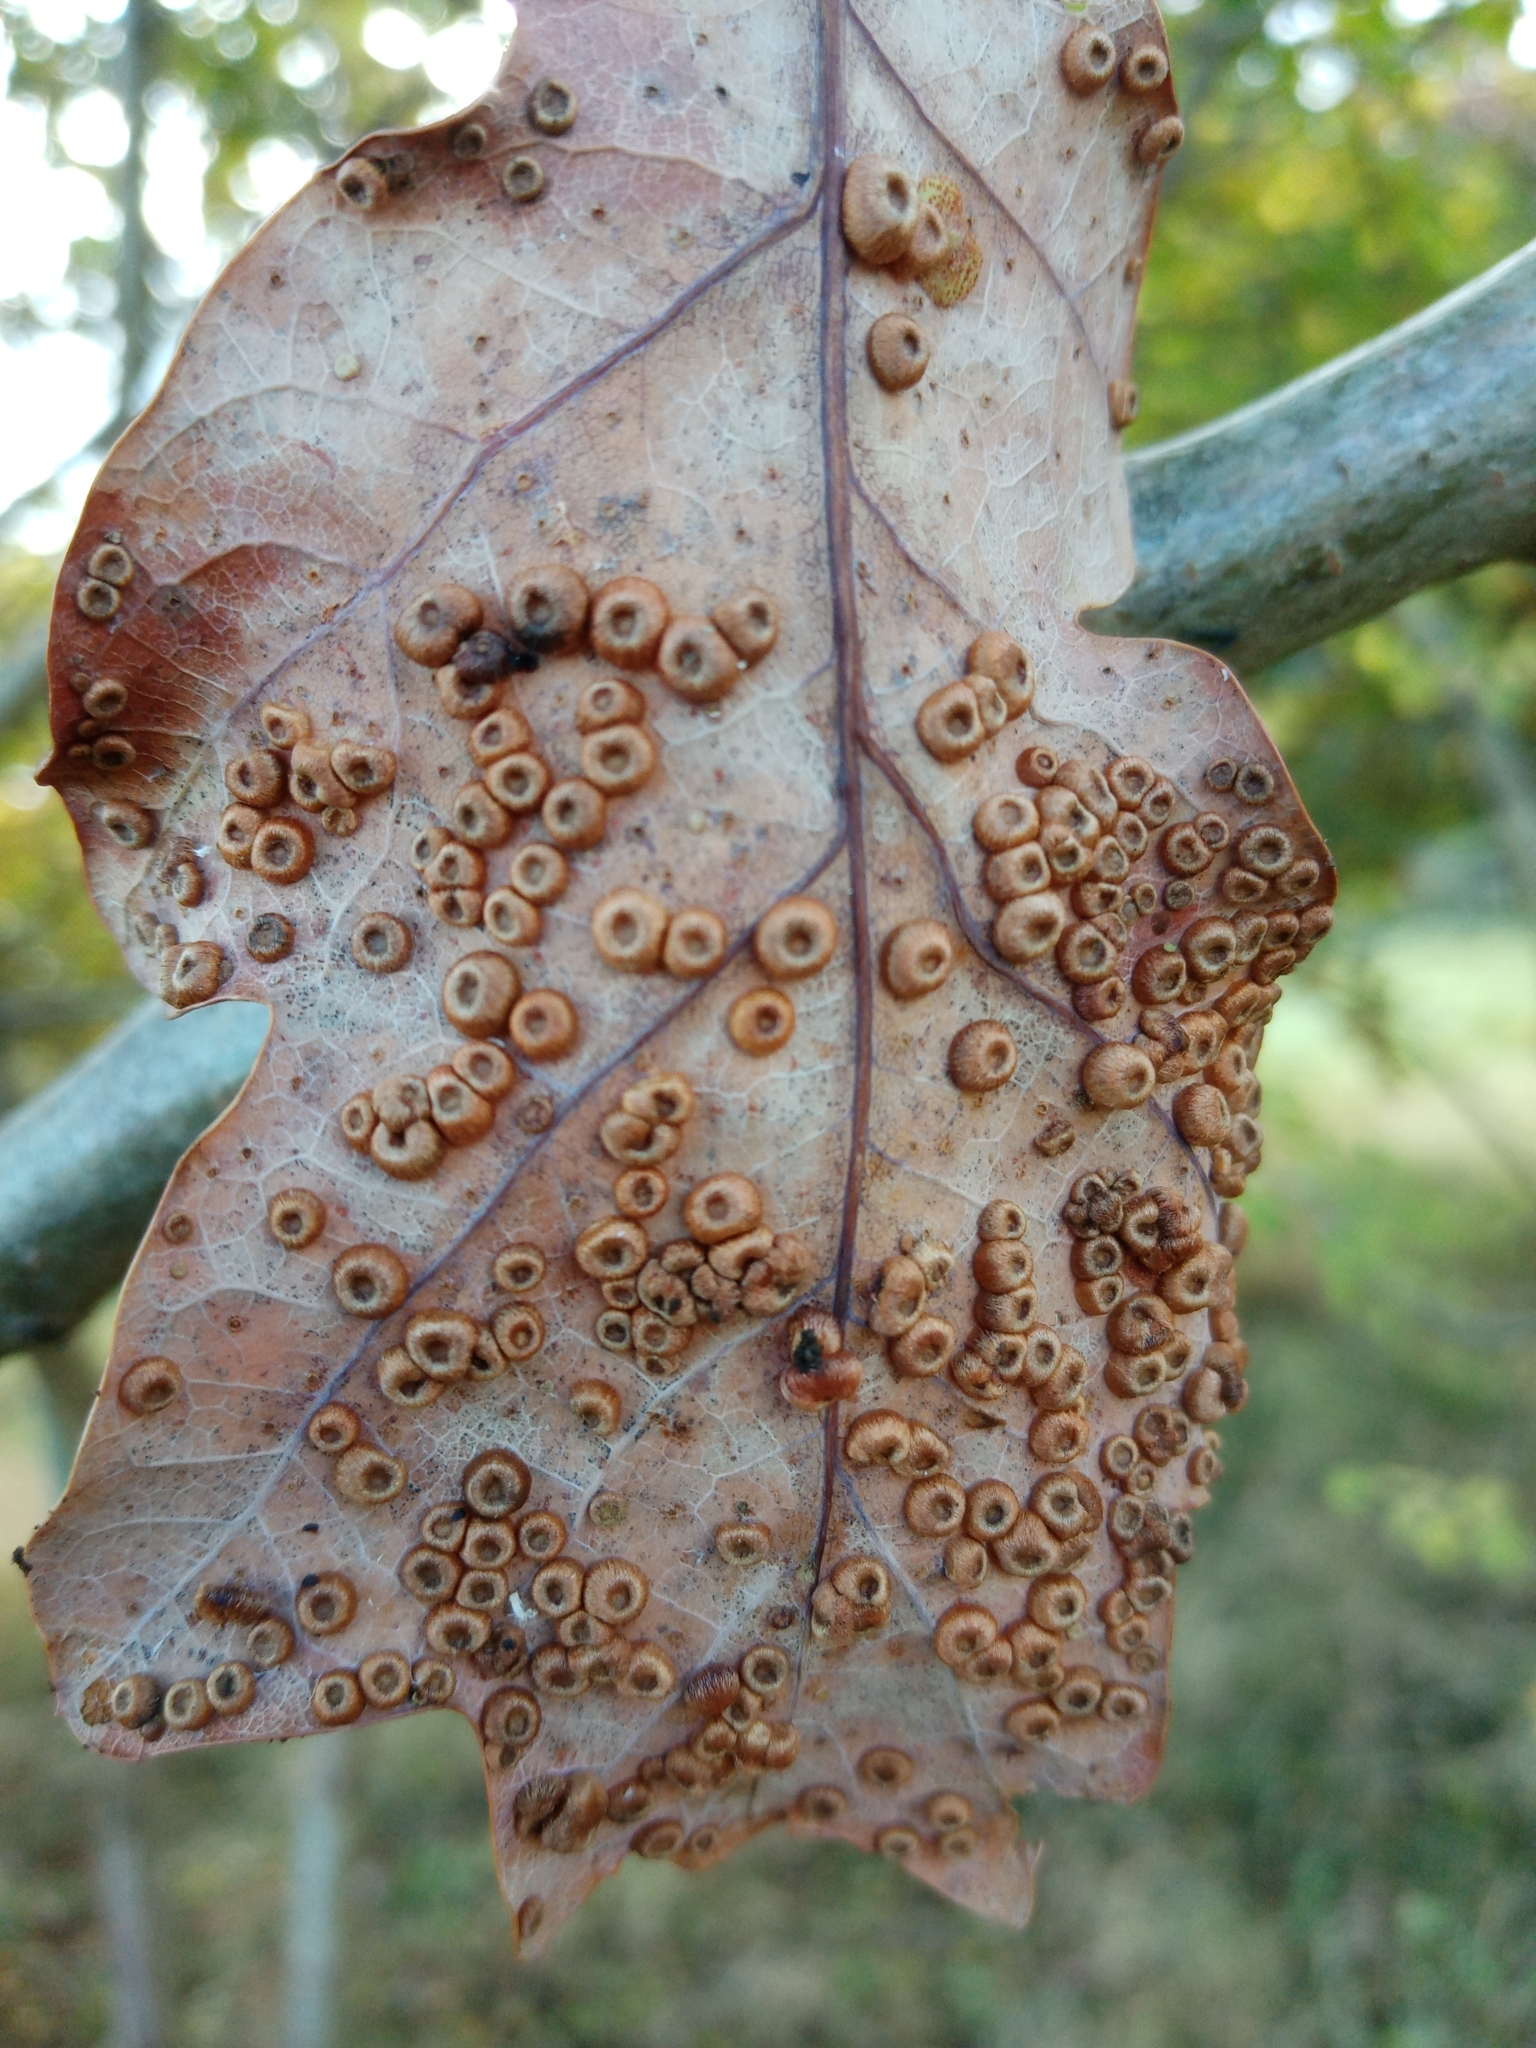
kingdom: Animalia
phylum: Arthropoda
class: Insecta
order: Hymenoptera
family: Cynipidae
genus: Neuroterus
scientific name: Neuroterus numismalis
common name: Silk-button spangle gall
